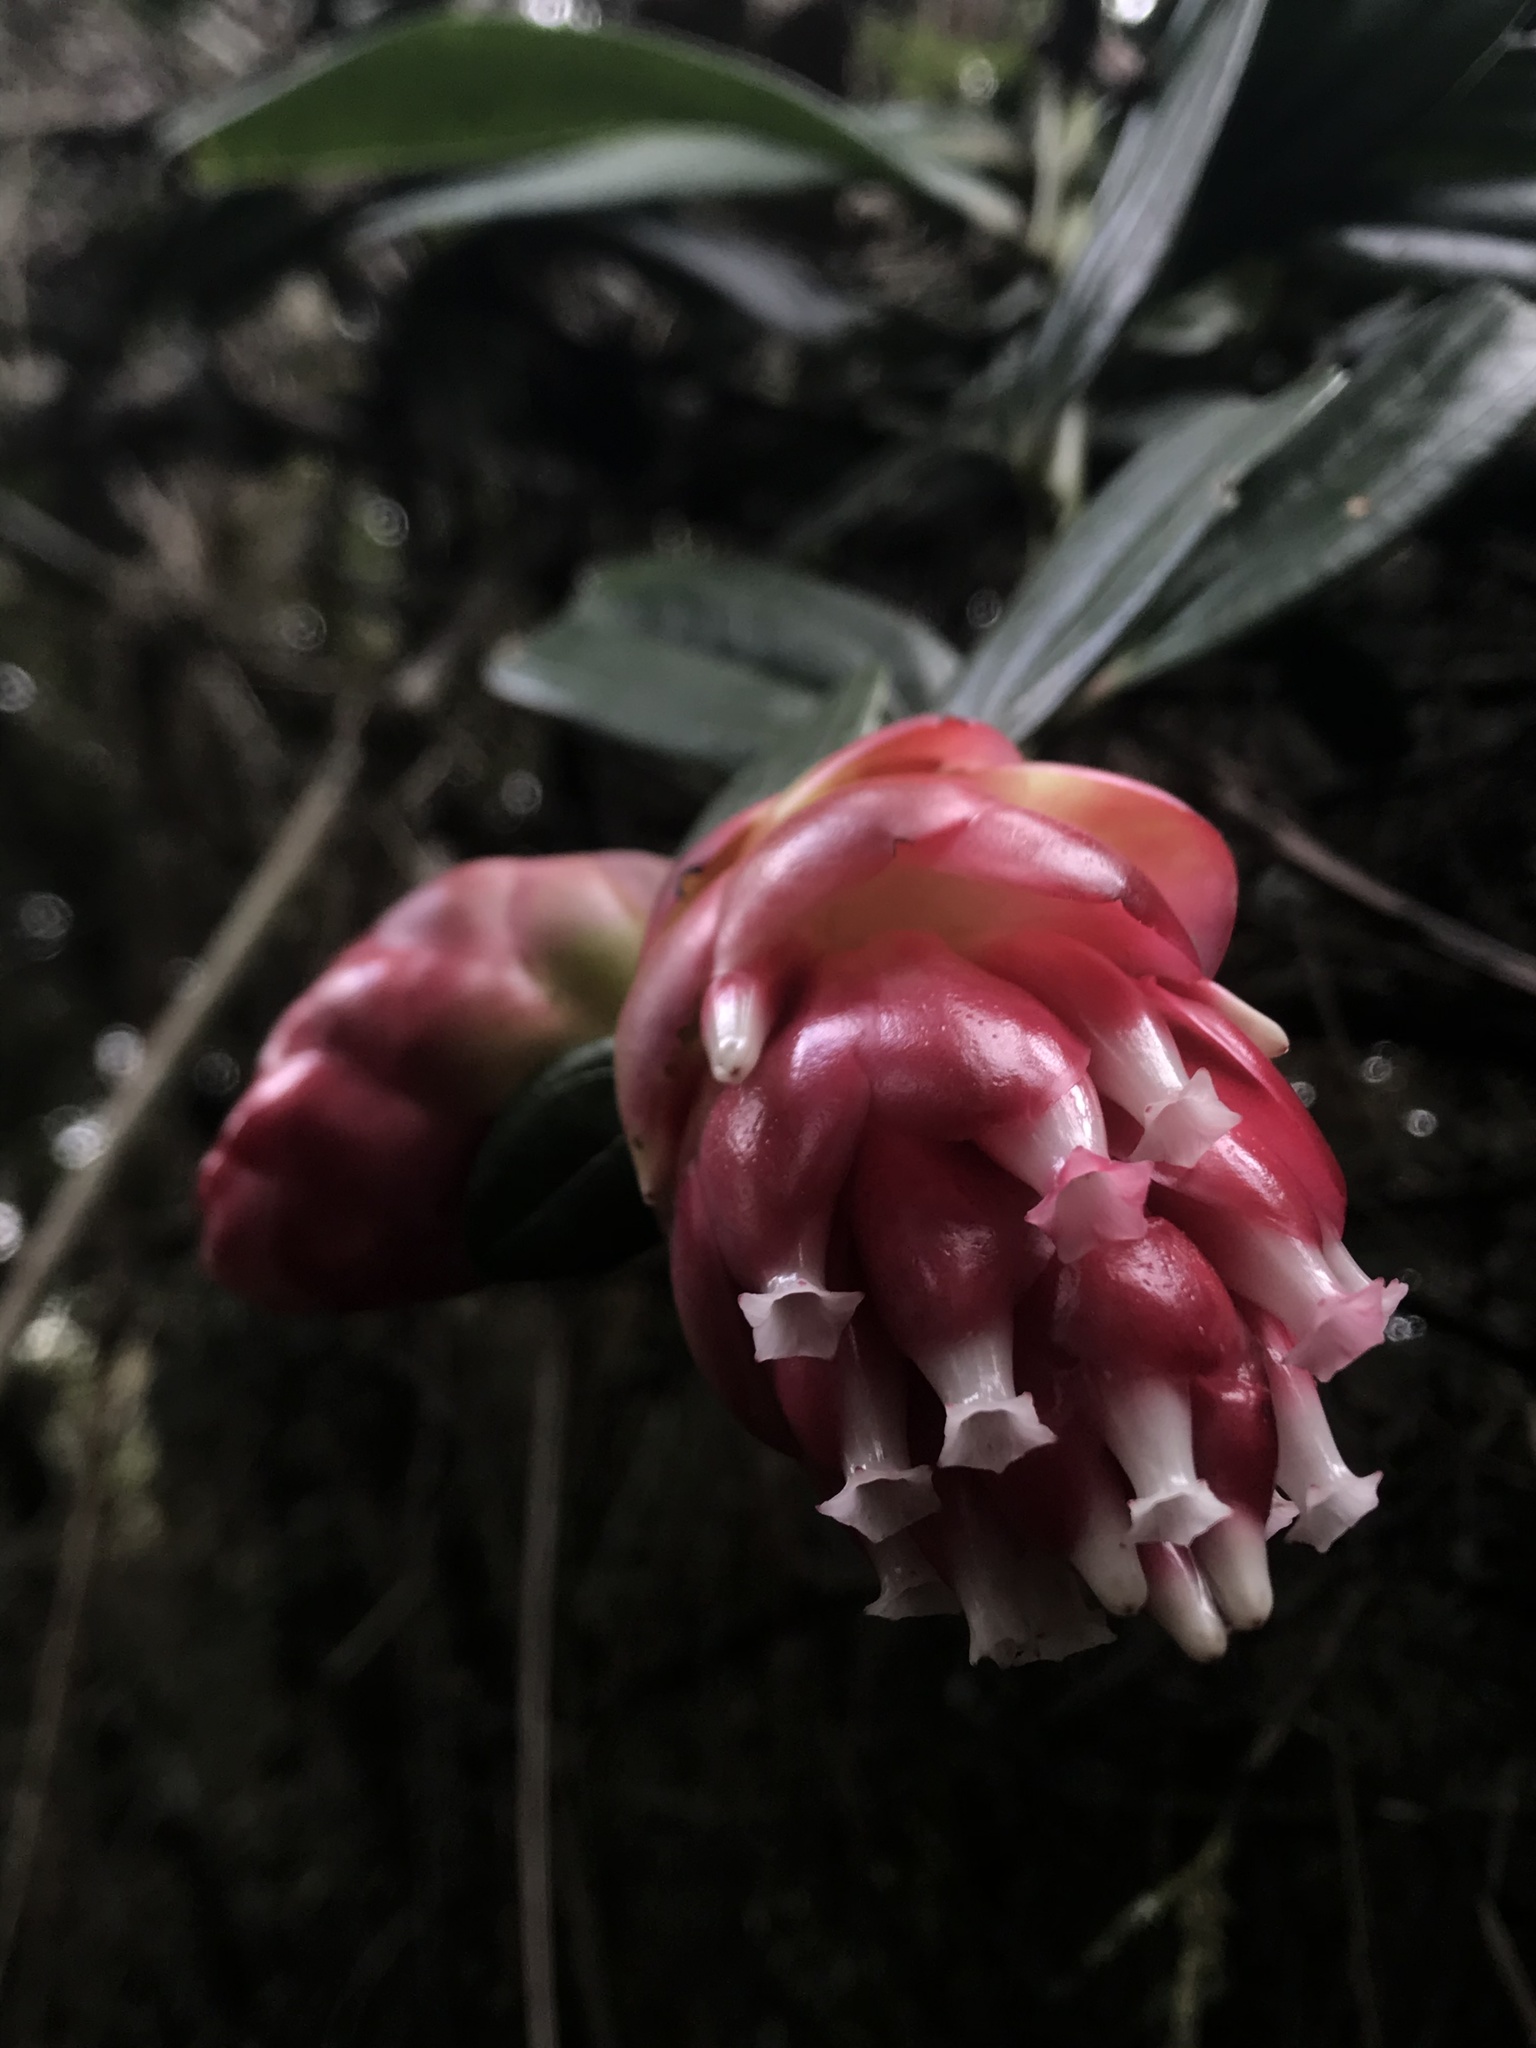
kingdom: Plantae
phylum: Tracheophyta
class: Magnoliopsida
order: Ericales
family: Ericaceae
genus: Cavendishia
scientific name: Cavendishia nitida
